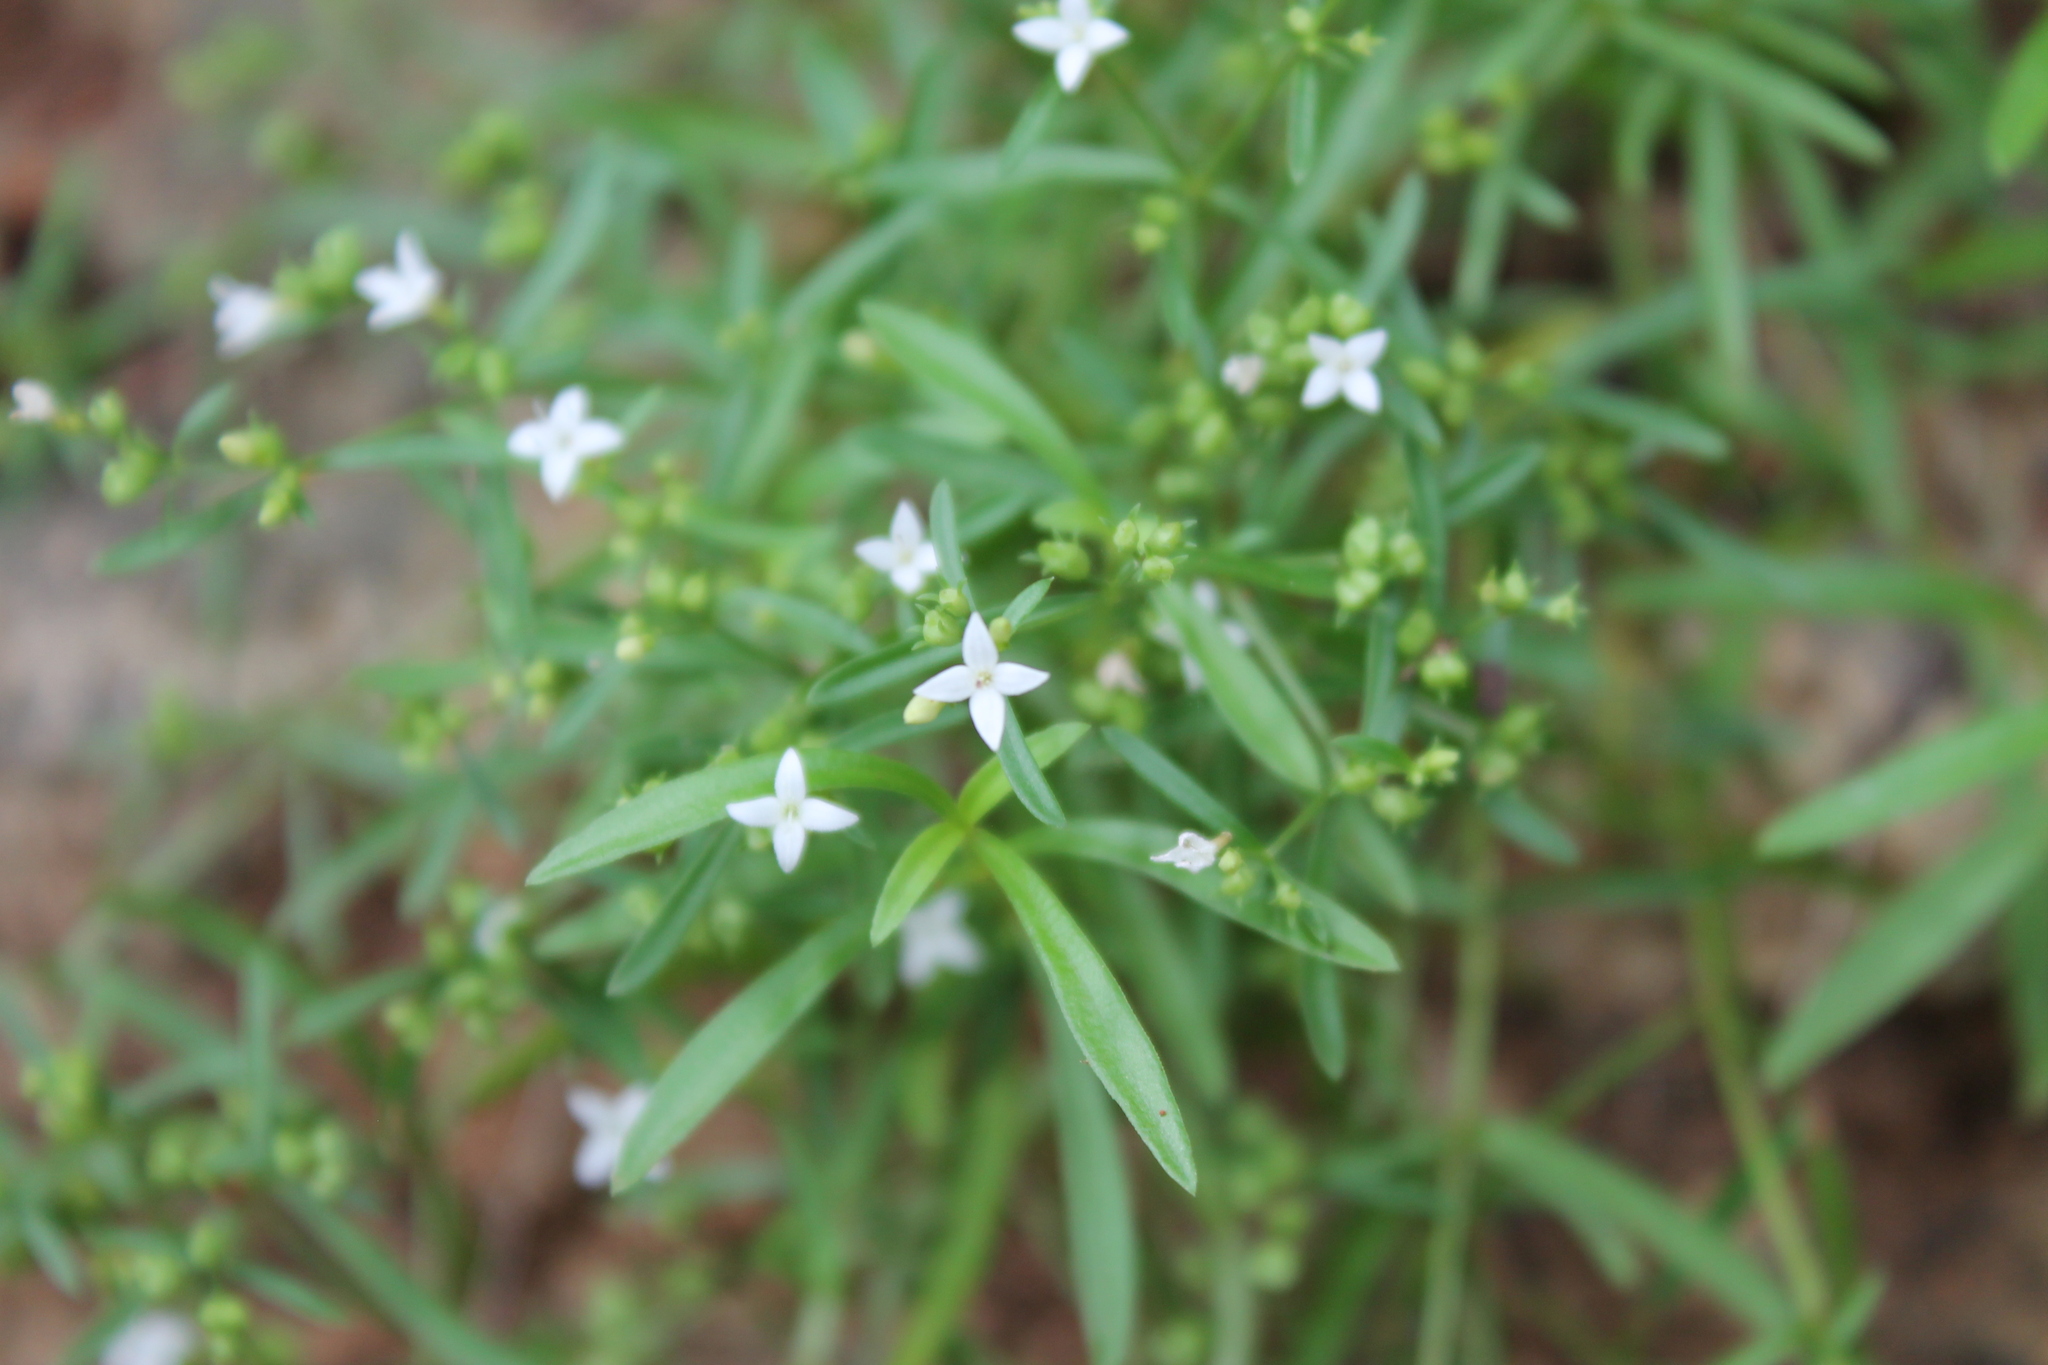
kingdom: Plantae
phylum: Tracheophyta
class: Magnoliopsida
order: Gentianales
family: Rubiaceae
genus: Houstonia
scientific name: Houstonia purpurea
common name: Summer bluet
